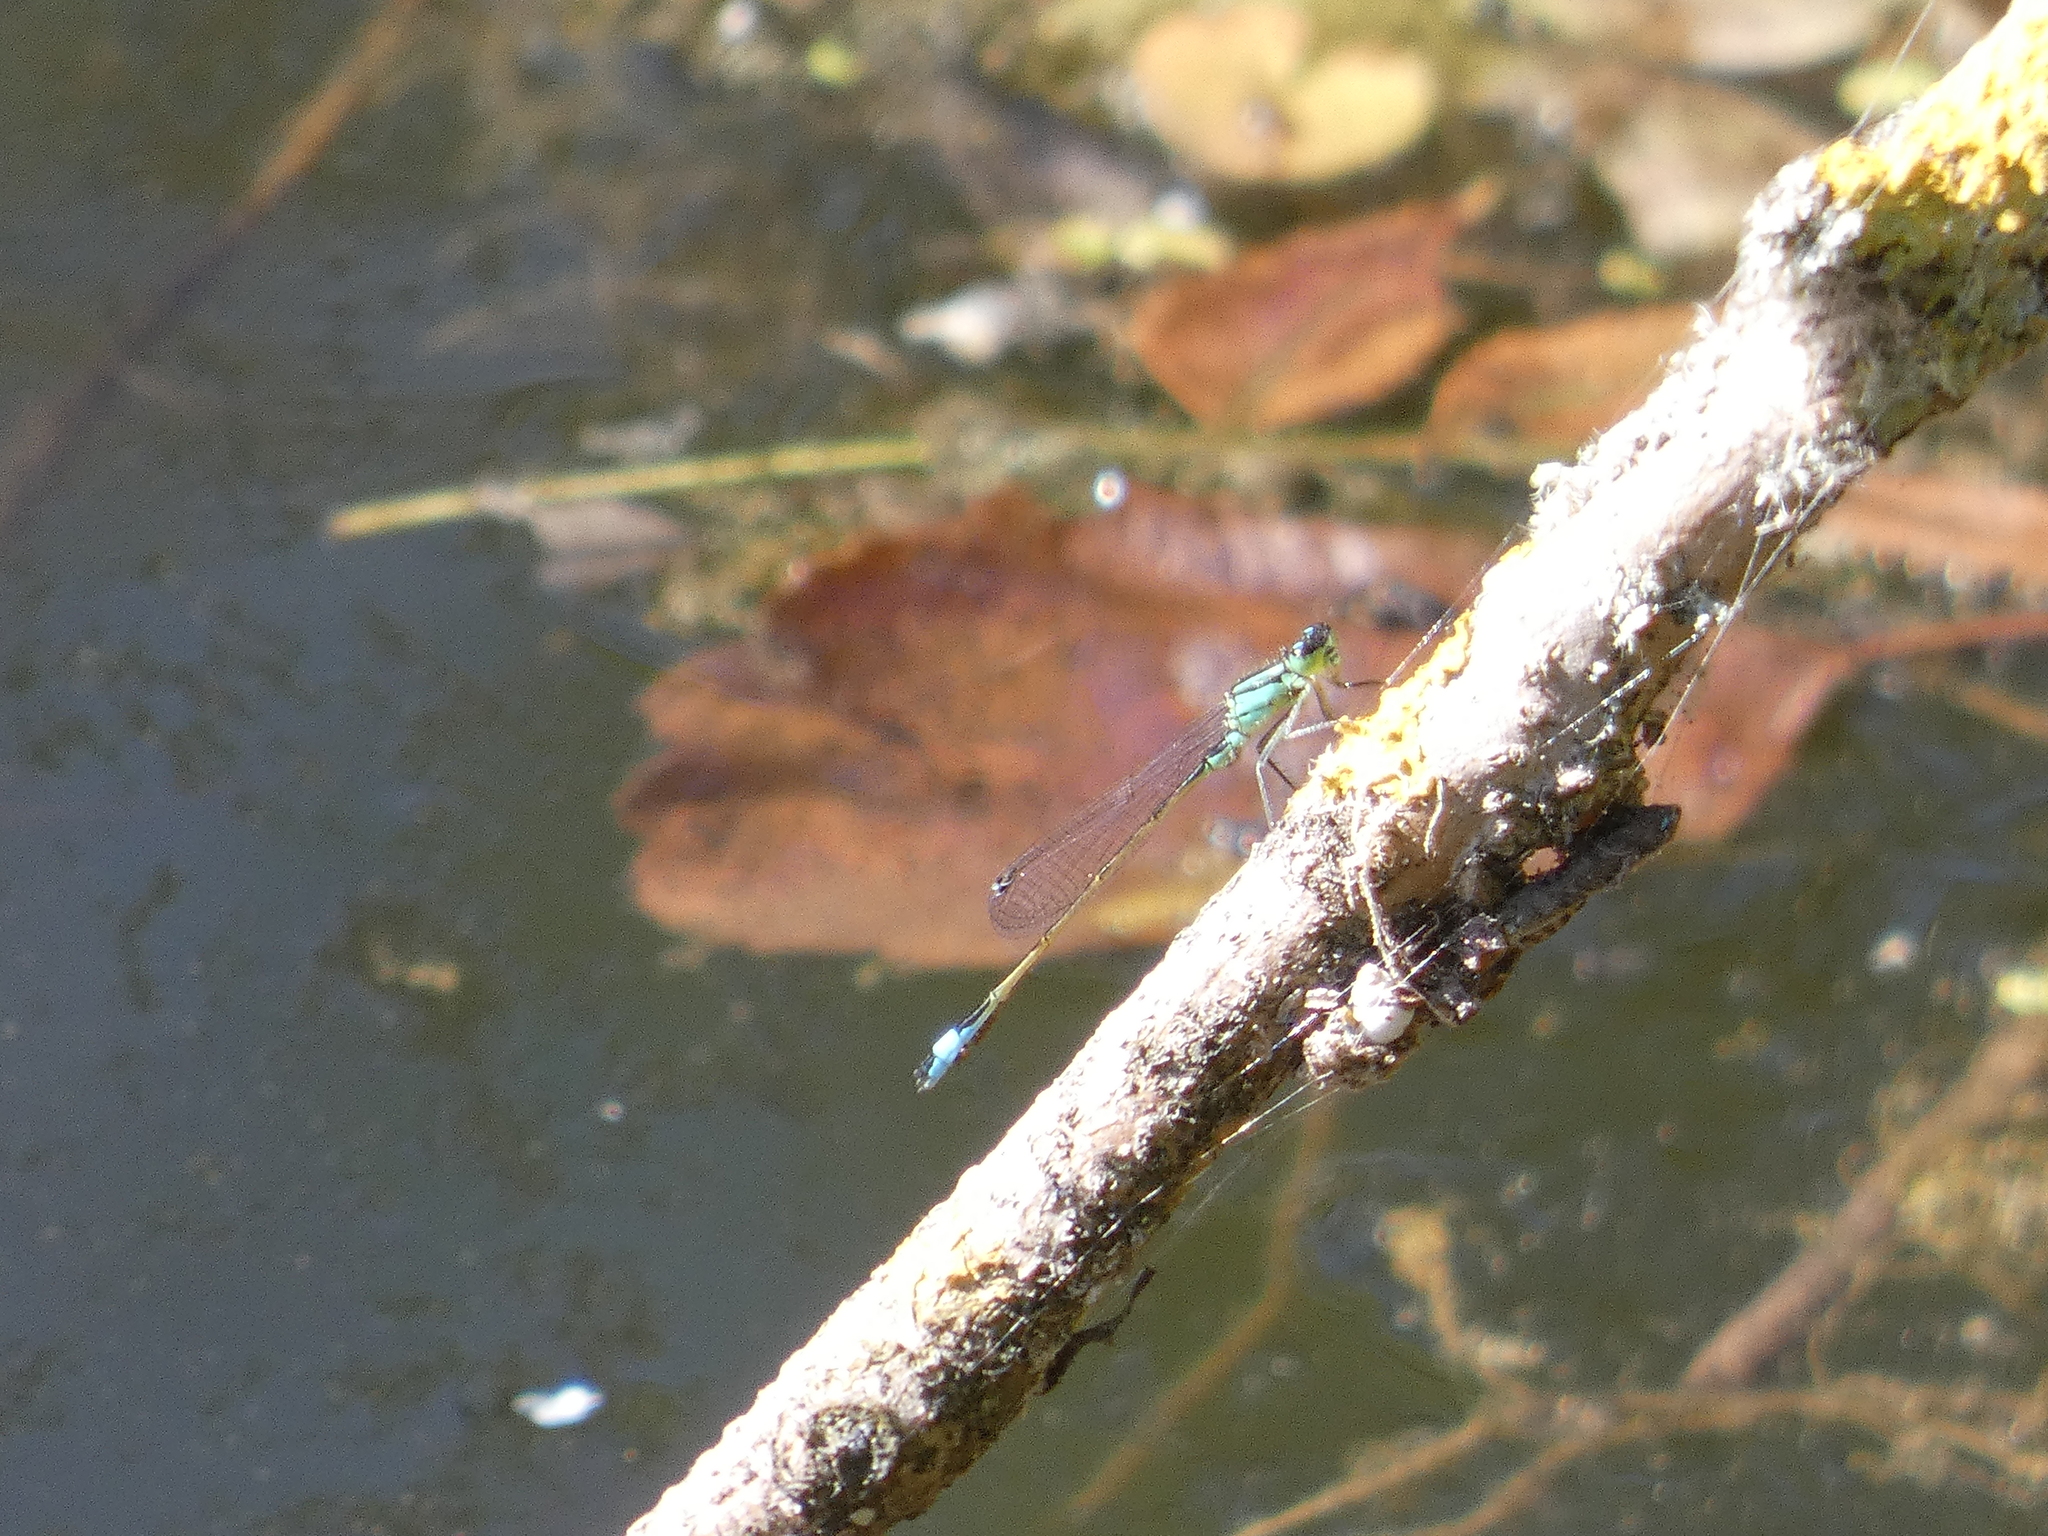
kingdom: Animalia
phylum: Arthropoda
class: Insecta
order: Odonata
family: Coenagrionidae
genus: Ischnura
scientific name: Ischnura elegans
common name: Blue-tailed damselfly
